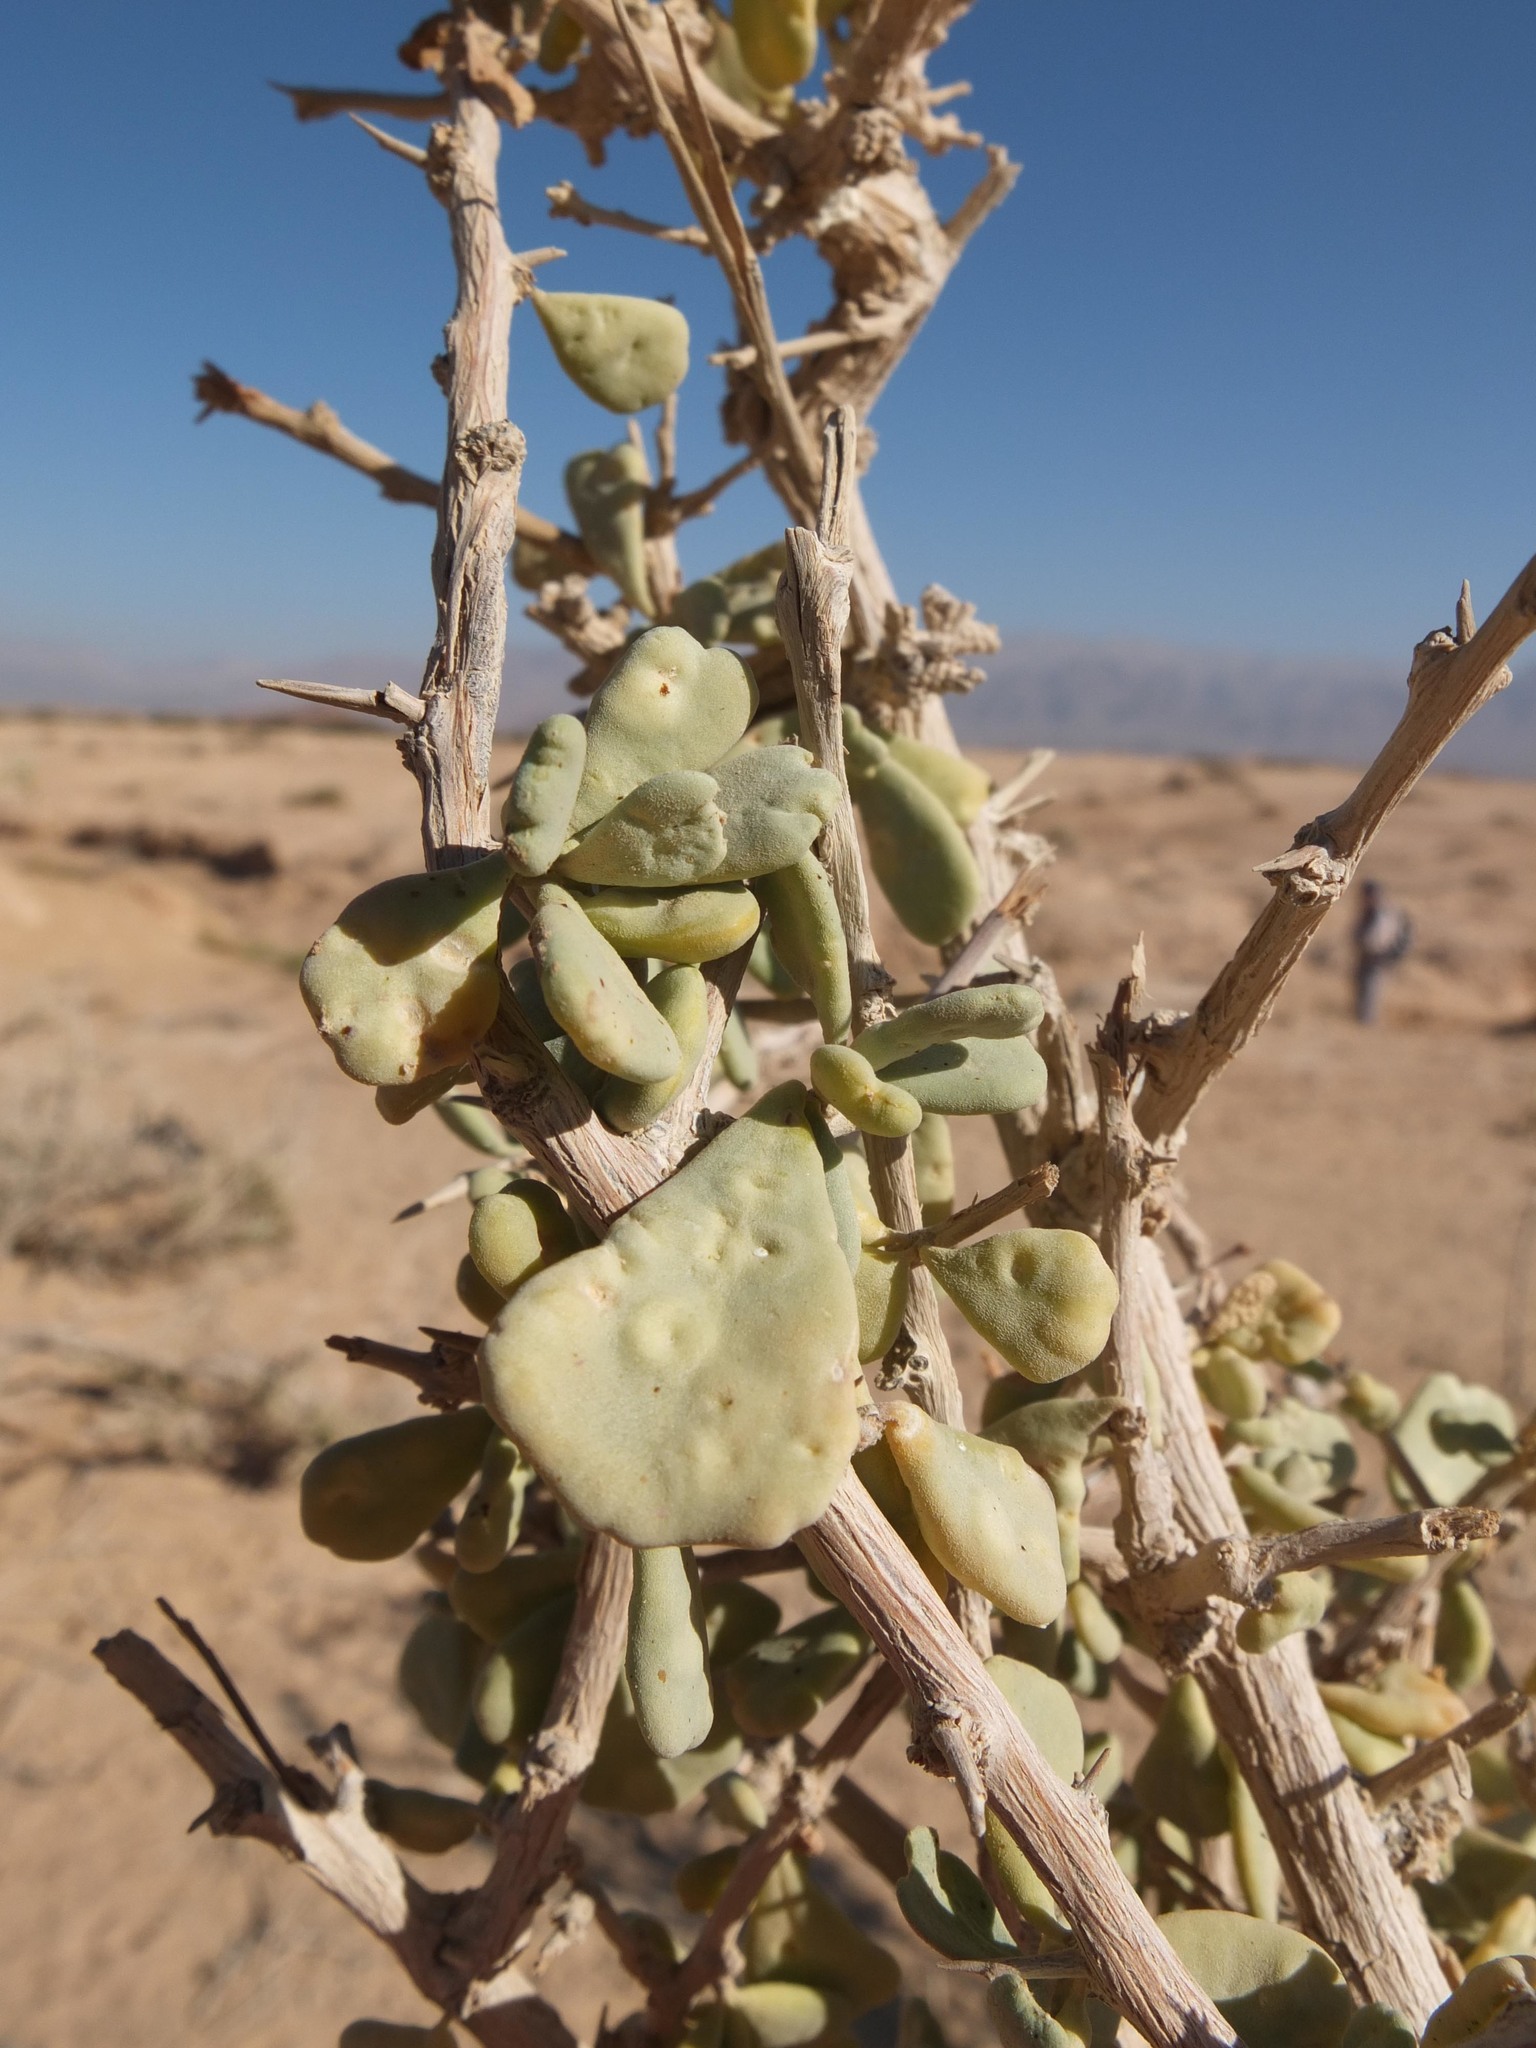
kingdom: Plantae
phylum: Tracheophyta
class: Magnoliopsida
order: Sapindales
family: Nitrariaceae
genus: Nitraria
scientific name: Nitraria retusa
